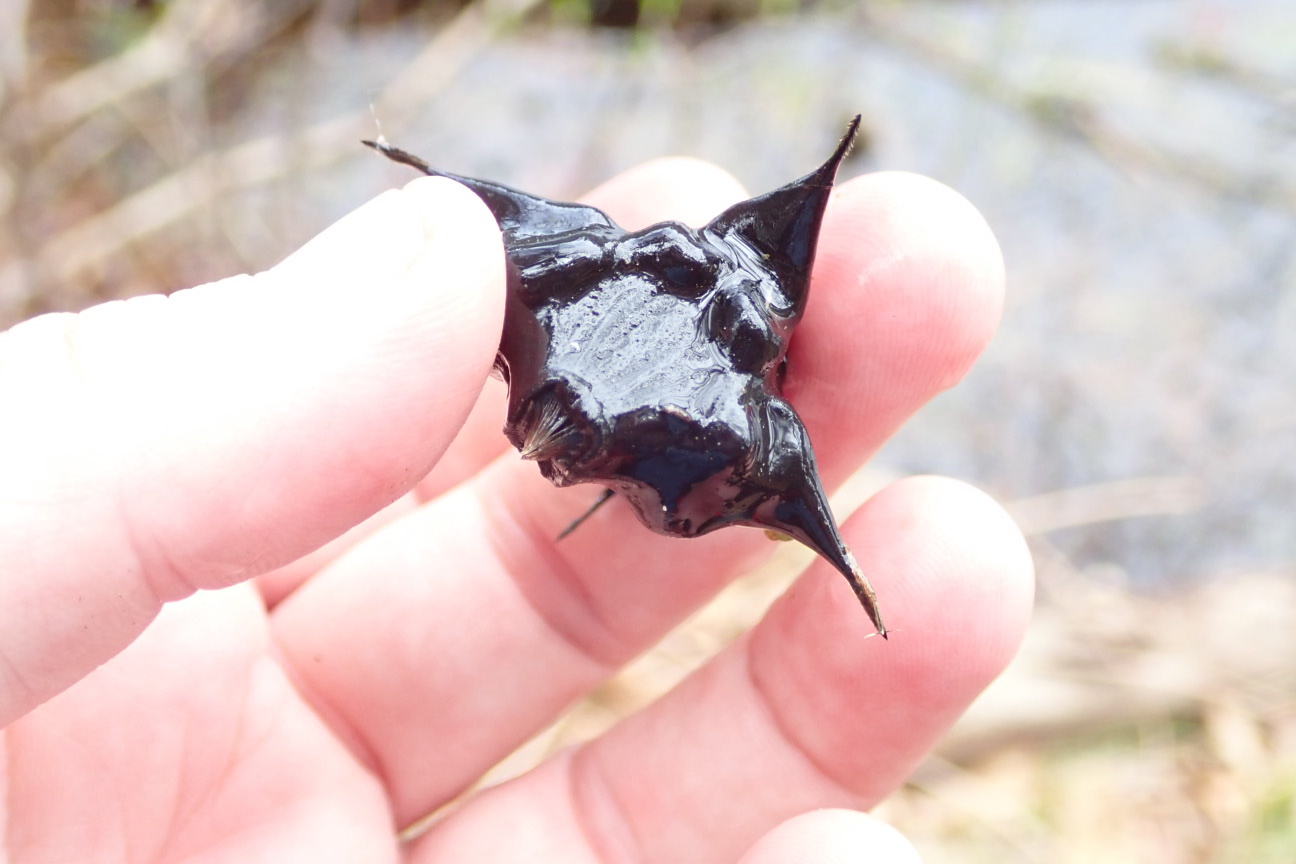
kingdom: Plantae
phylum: Tracheophyta
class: Magnoliopsida
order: Myrtales
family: Lythraceae
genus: Trapa
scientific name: Trapa natans
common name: Water chestnut
